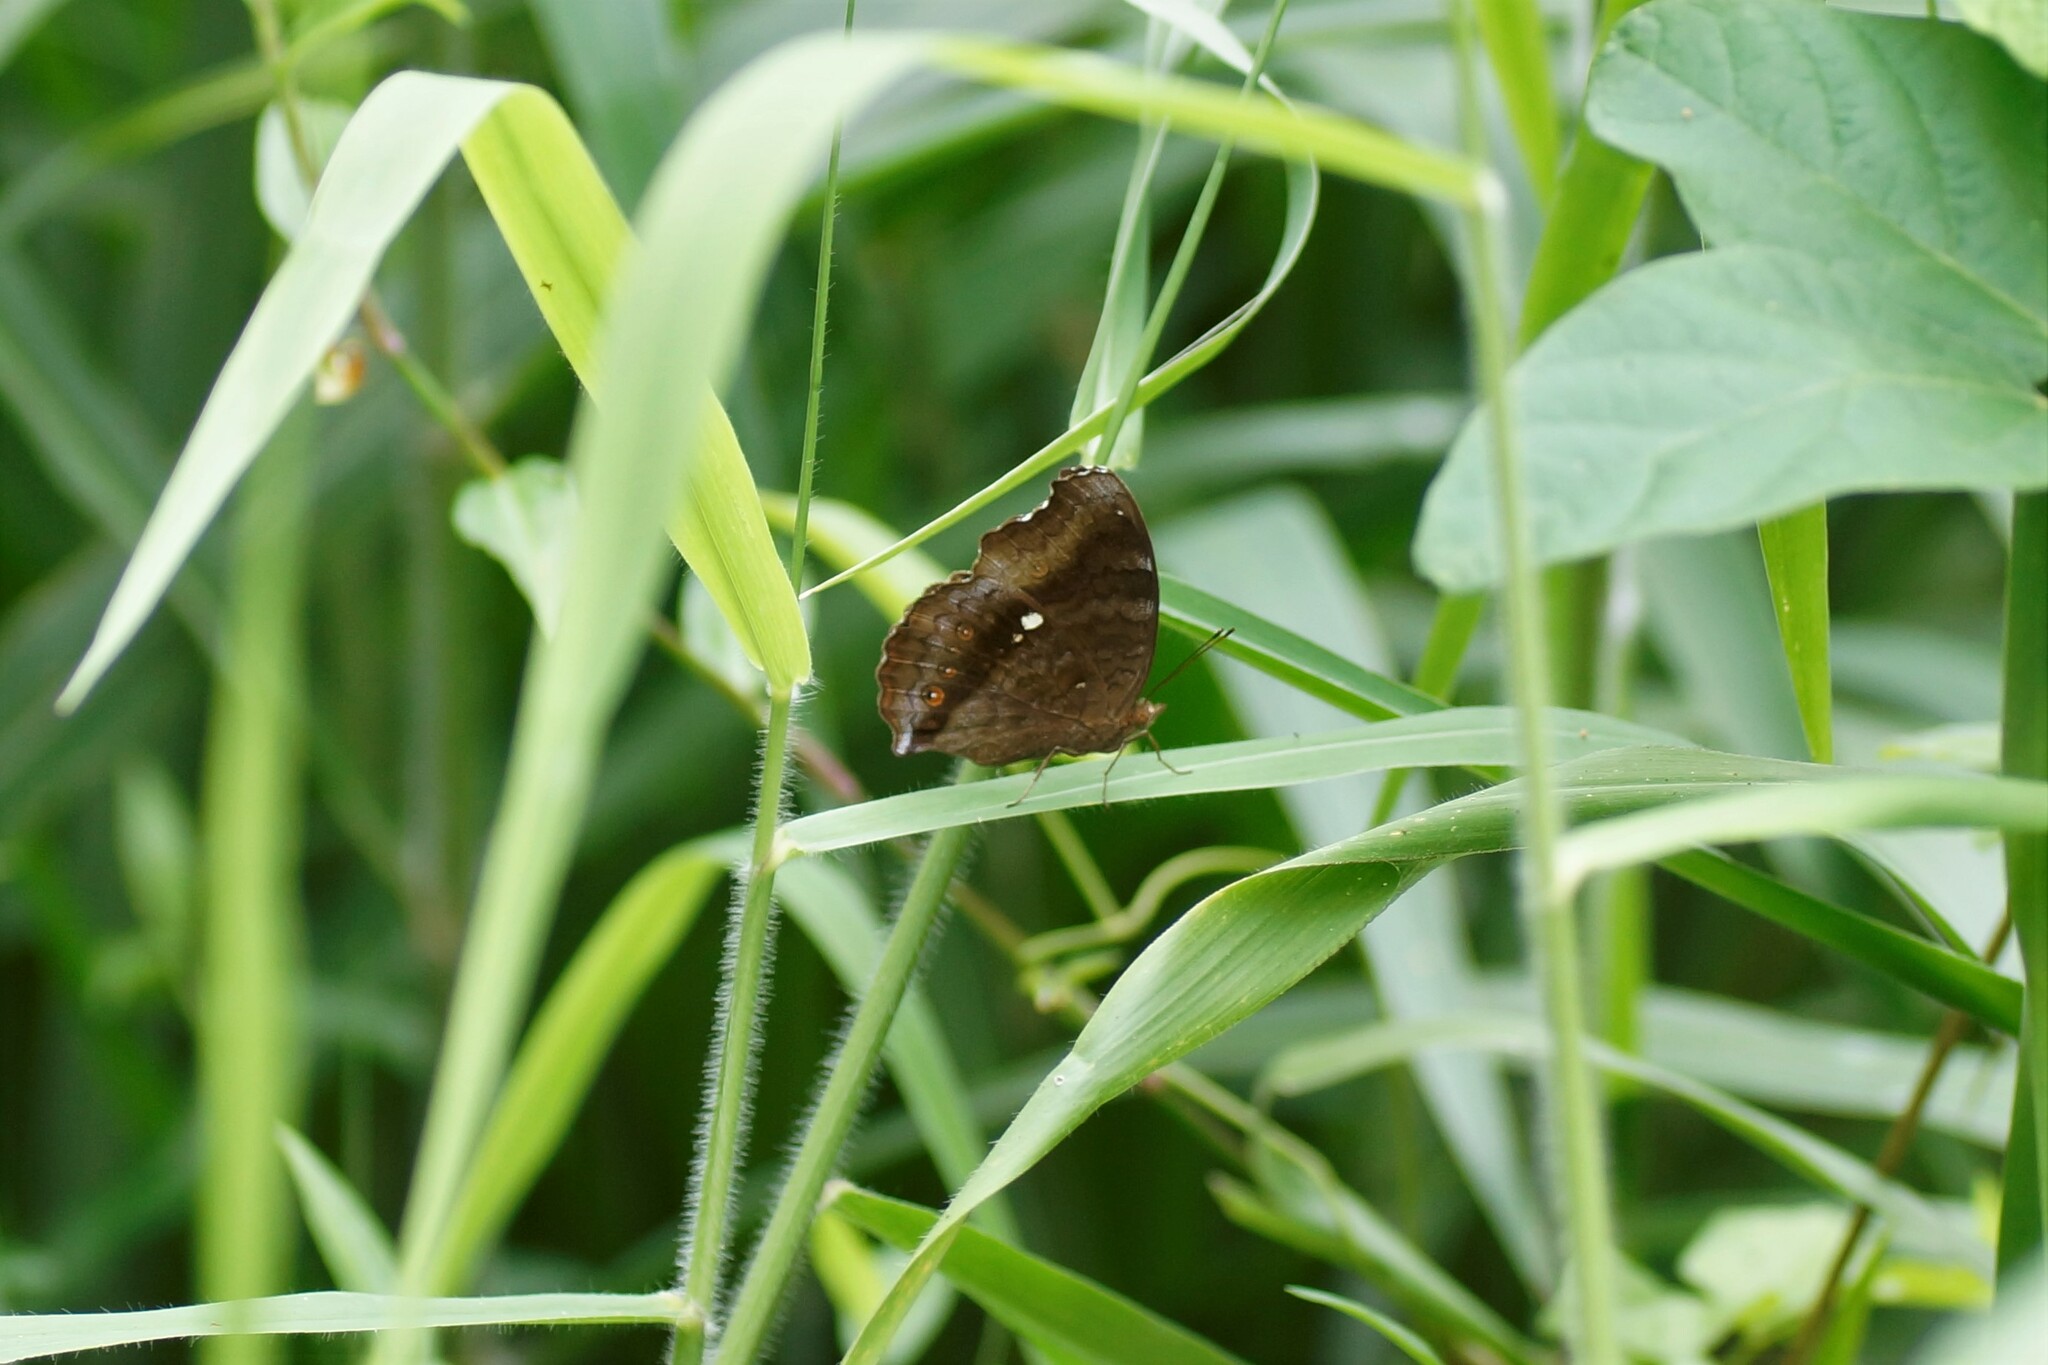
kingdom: Animalia
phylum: Arthropoda
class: Insecta
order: Lepidoptera
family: Nymphalidae
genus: Junonia
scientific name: Junonia hedonia
